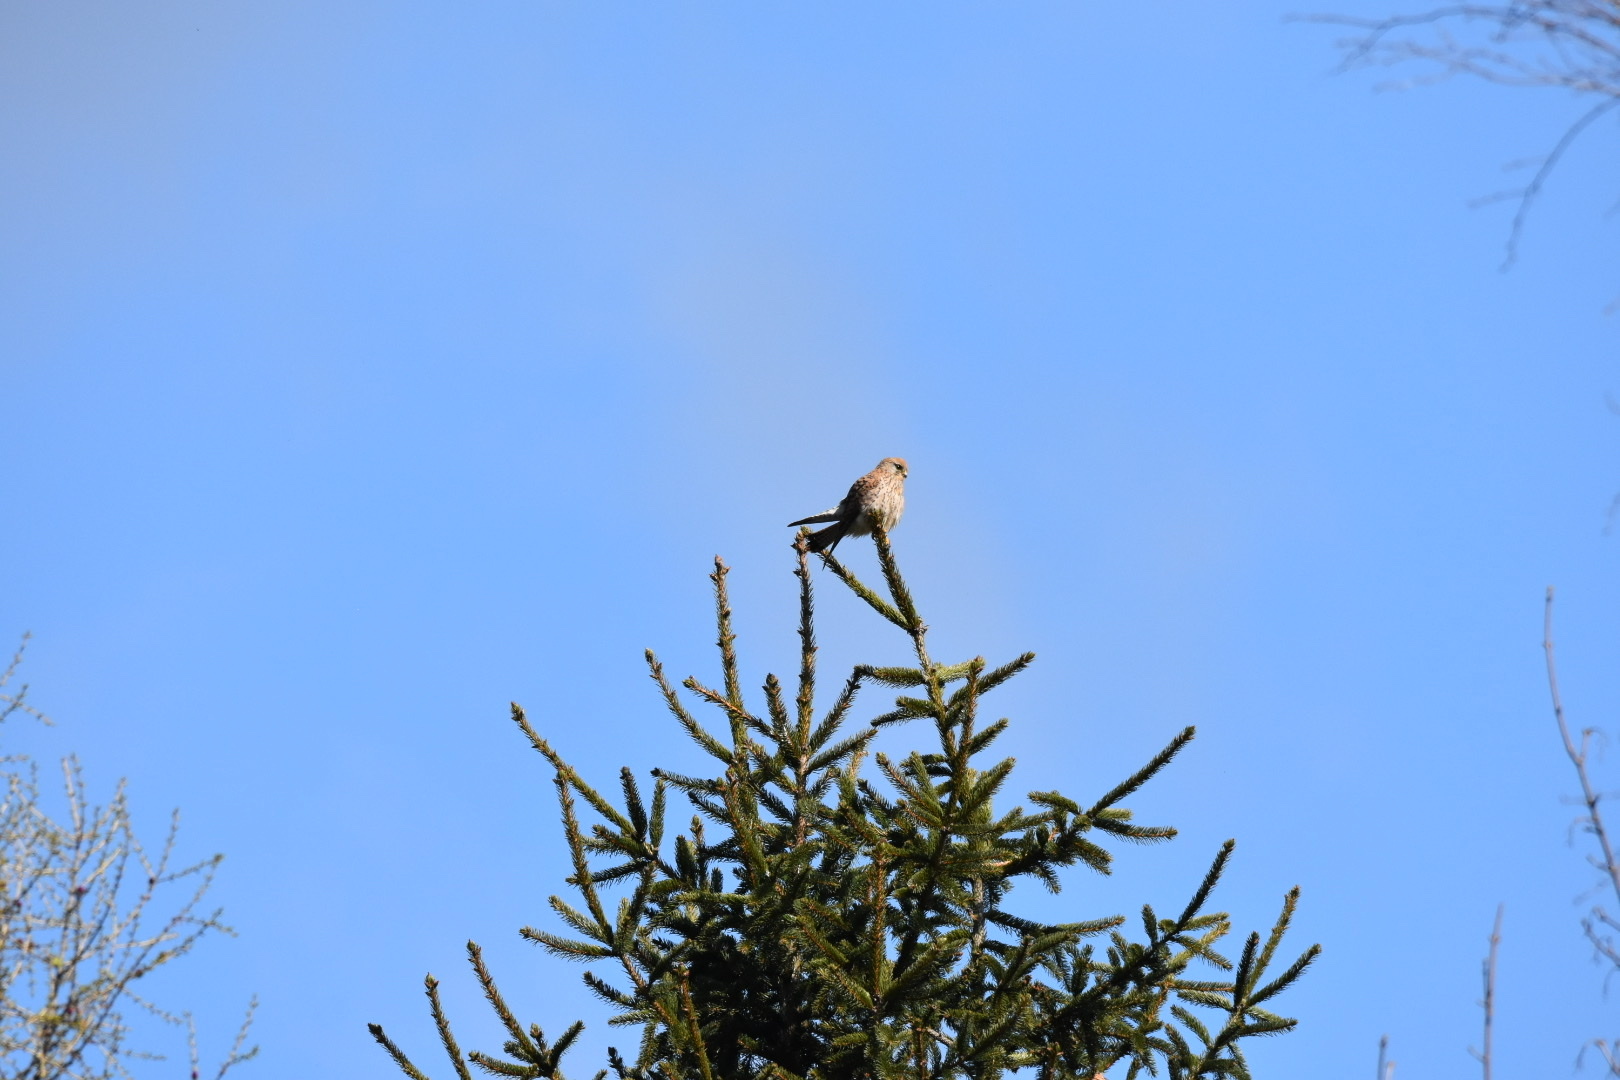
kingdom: Animalia
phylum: Chordata
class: Aves
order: Falconiformes
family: Falconidae
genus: Falco
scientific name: Falco tinnunculus
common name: Common kestrel
